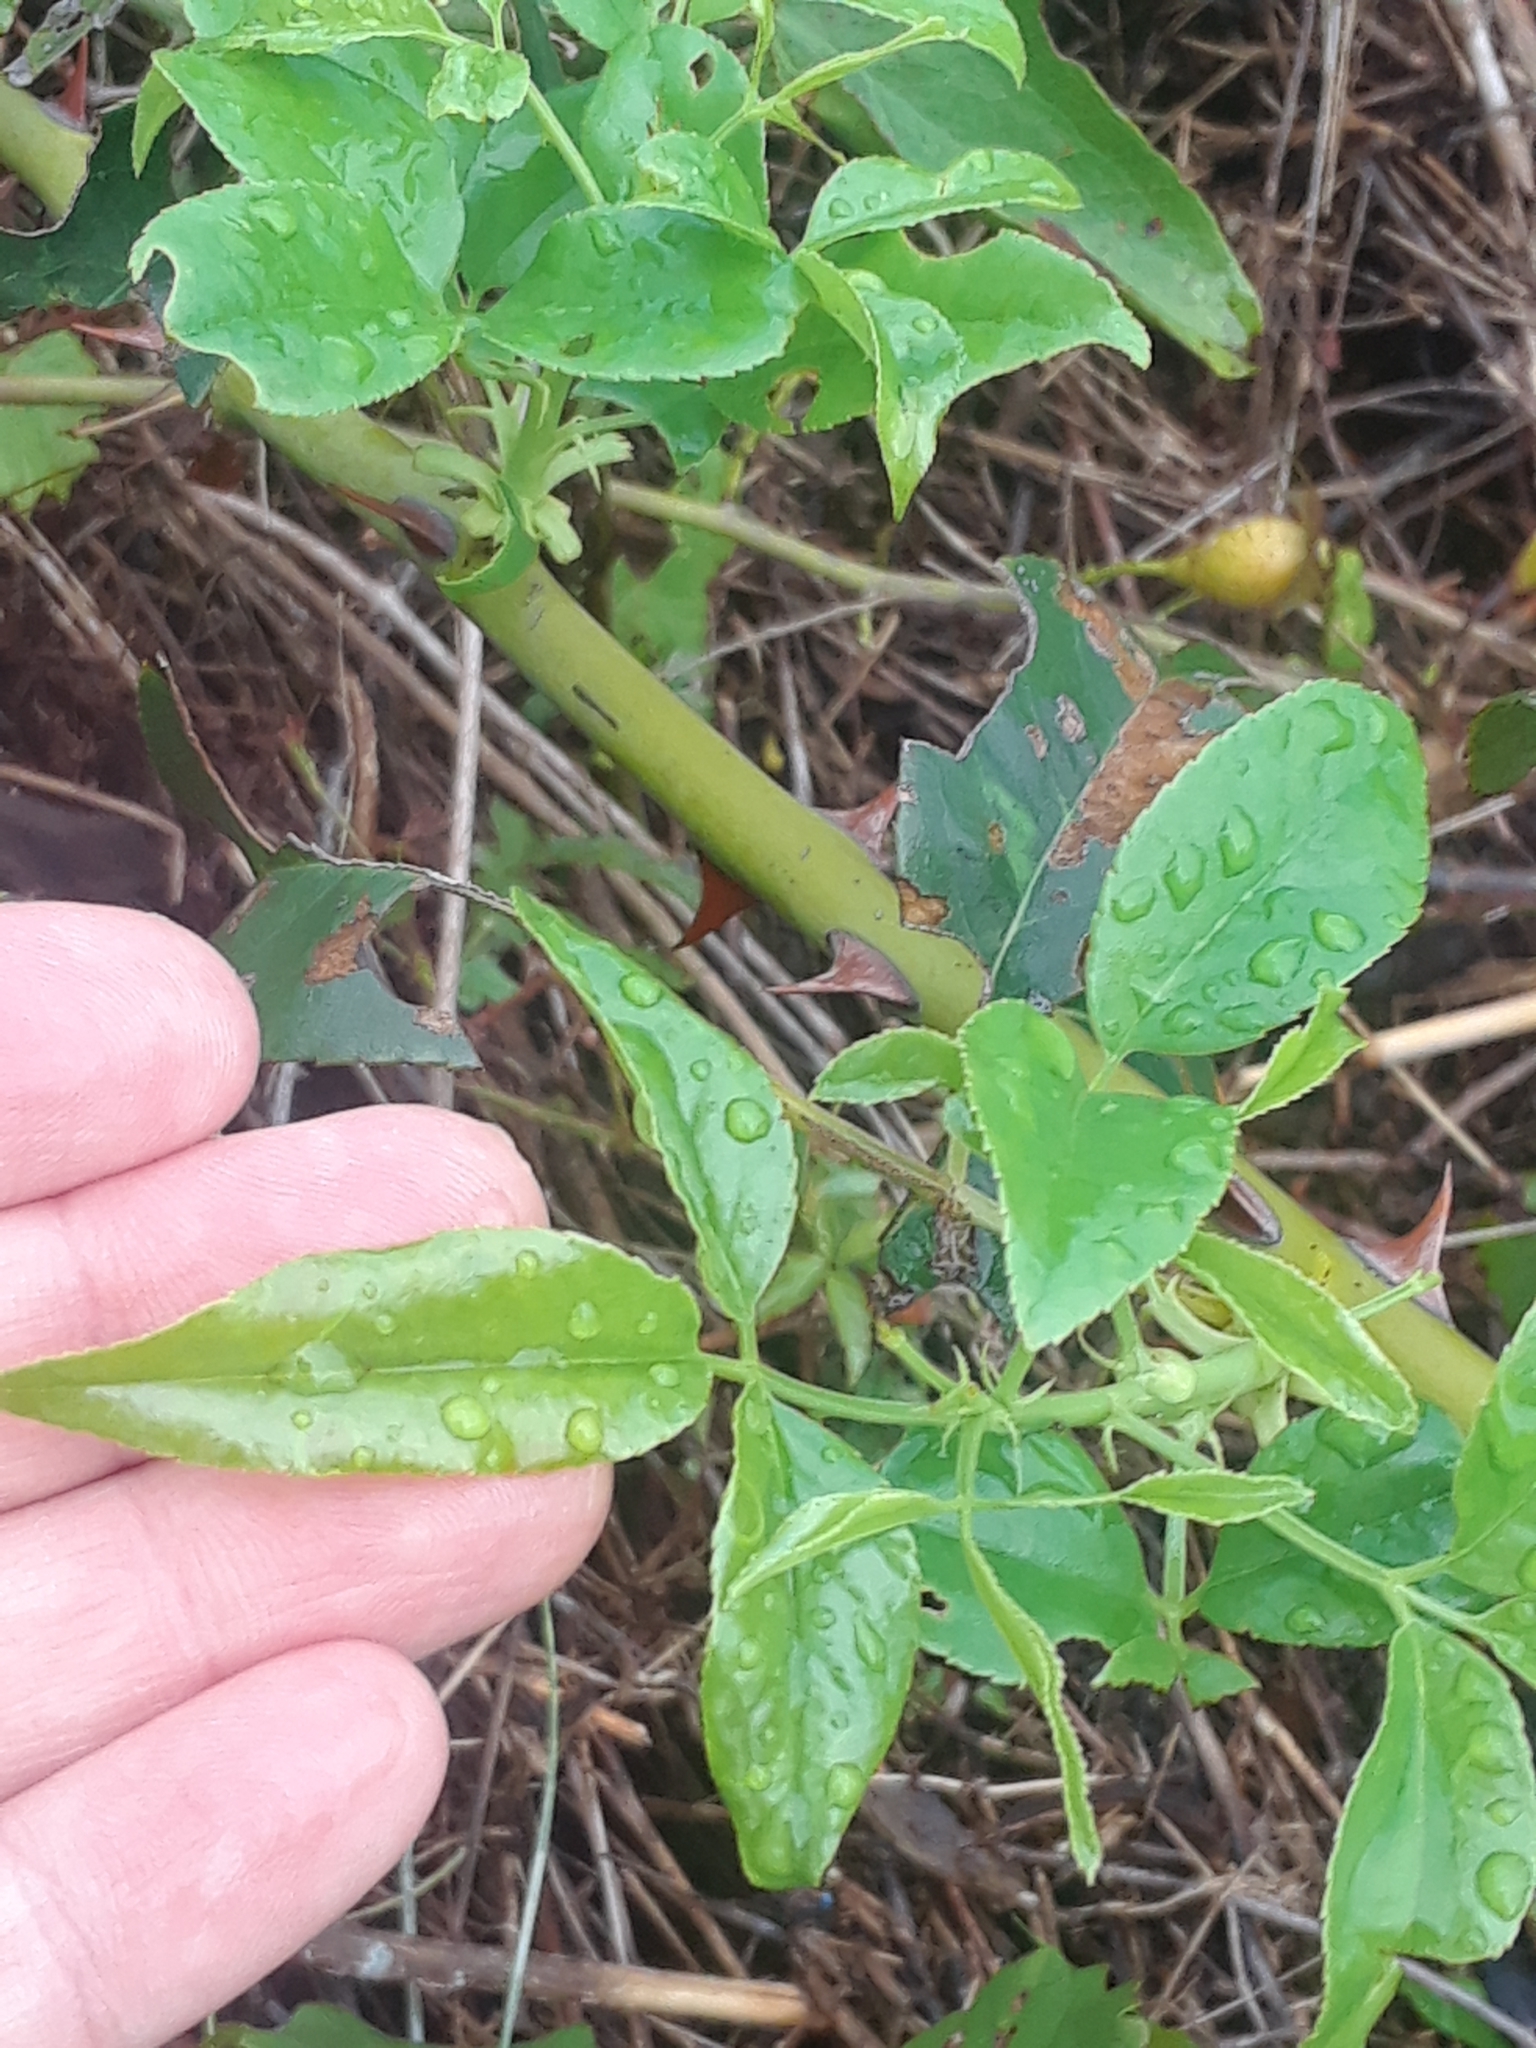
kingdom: Plantae
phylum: Tracheophyta
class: Magnoliopsida
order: Rosales
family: Rosaceae
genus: Rosa
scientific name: Rosa laevigata
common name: Cherokee rose
